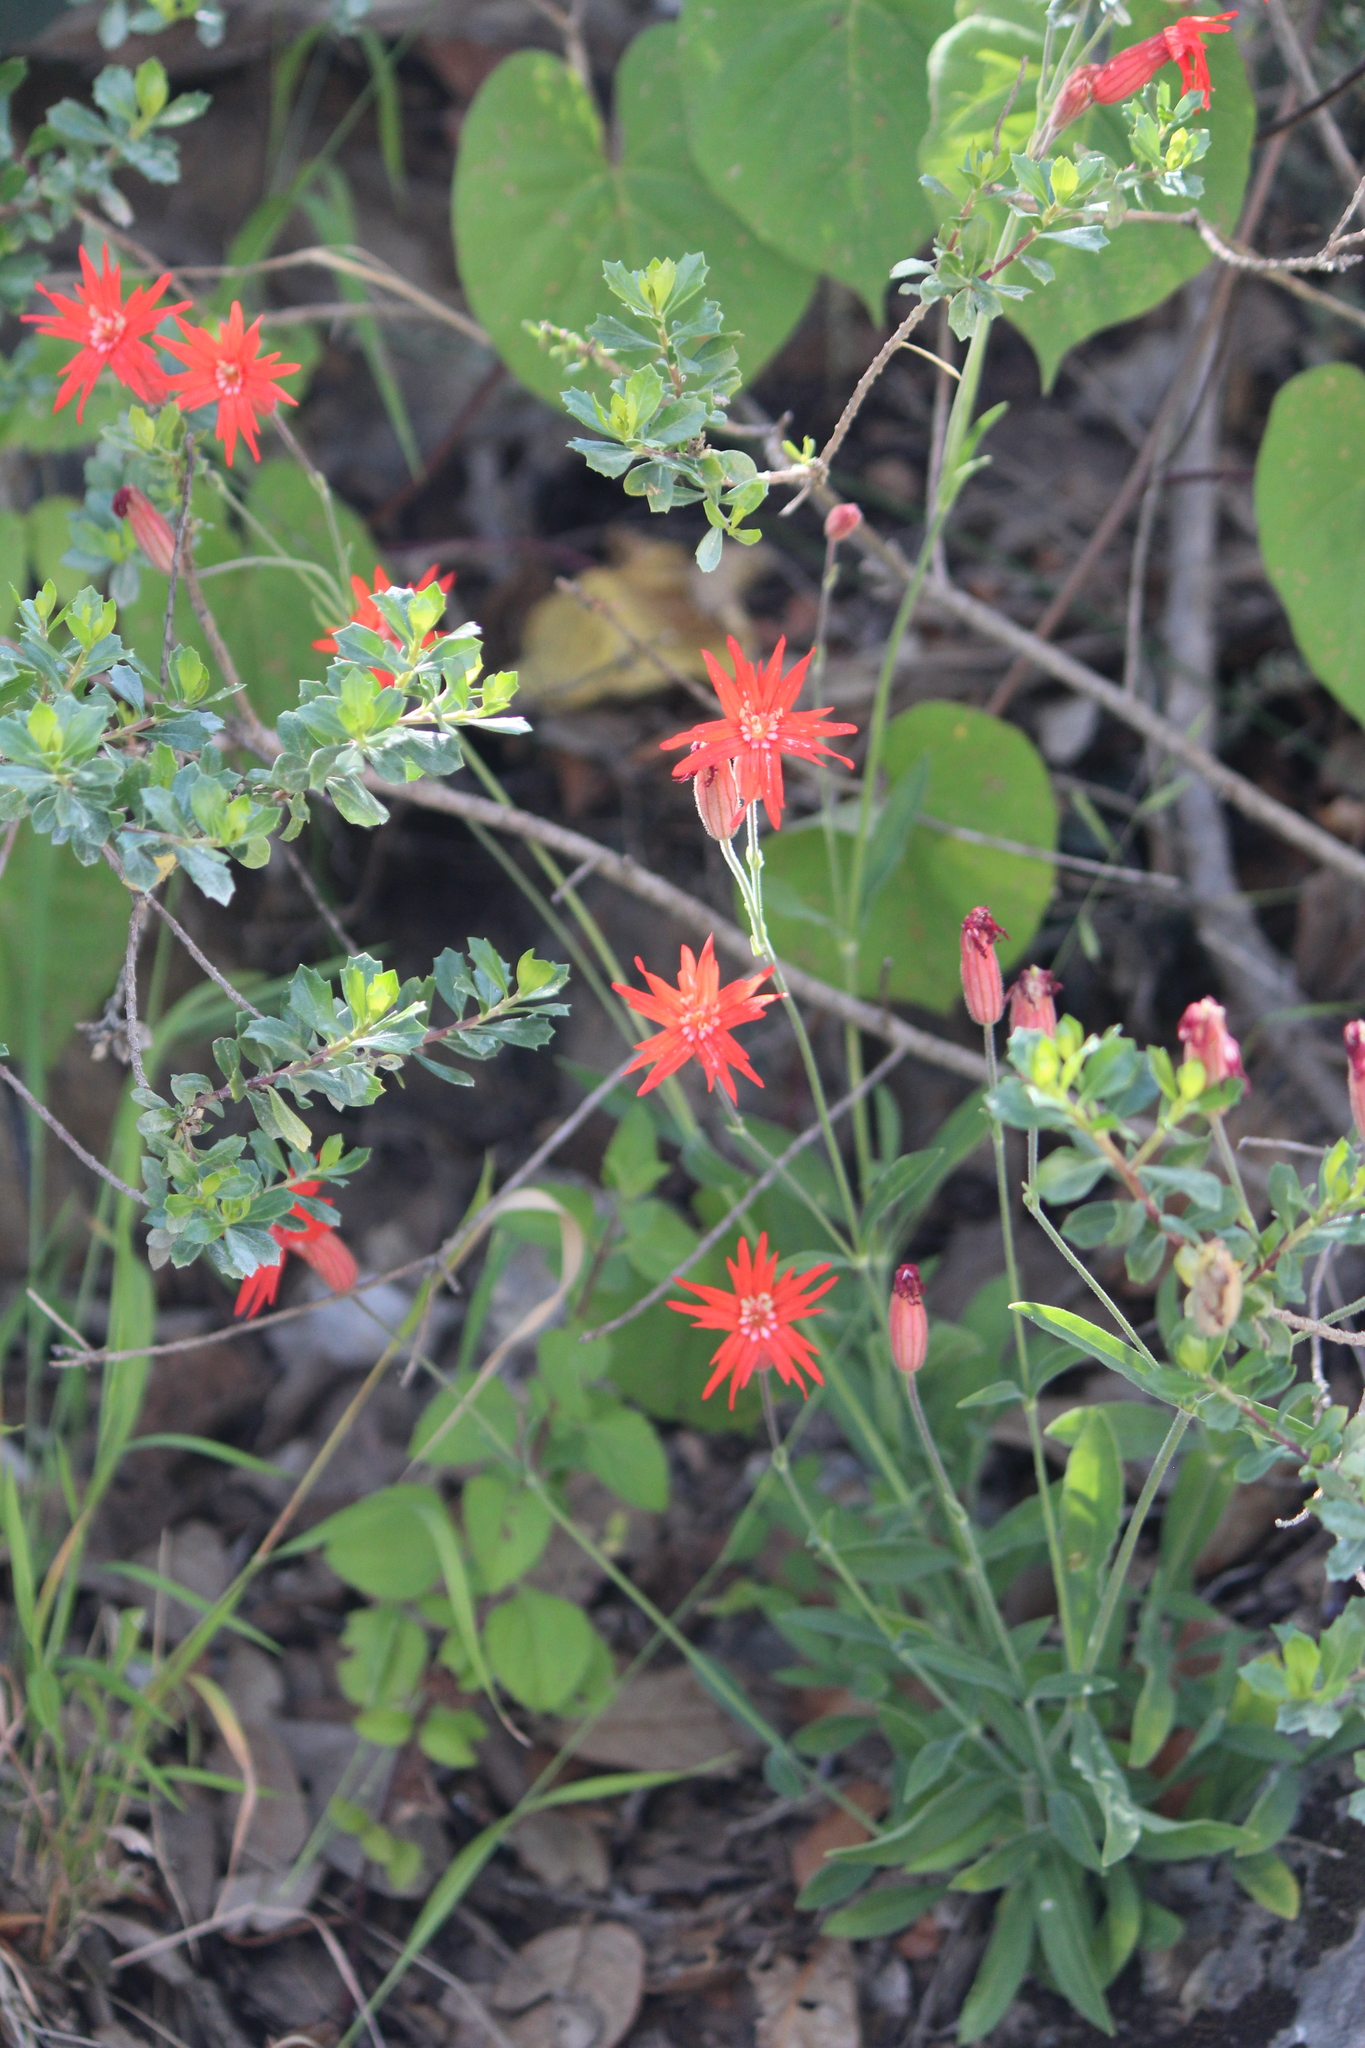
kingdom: Plantae
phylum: Tracheophyta
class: Magnoliopsida
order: Caryophyllales
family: Caryophyllaceae
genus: Silene
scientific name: Silene laciniata
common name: Indian-pink
